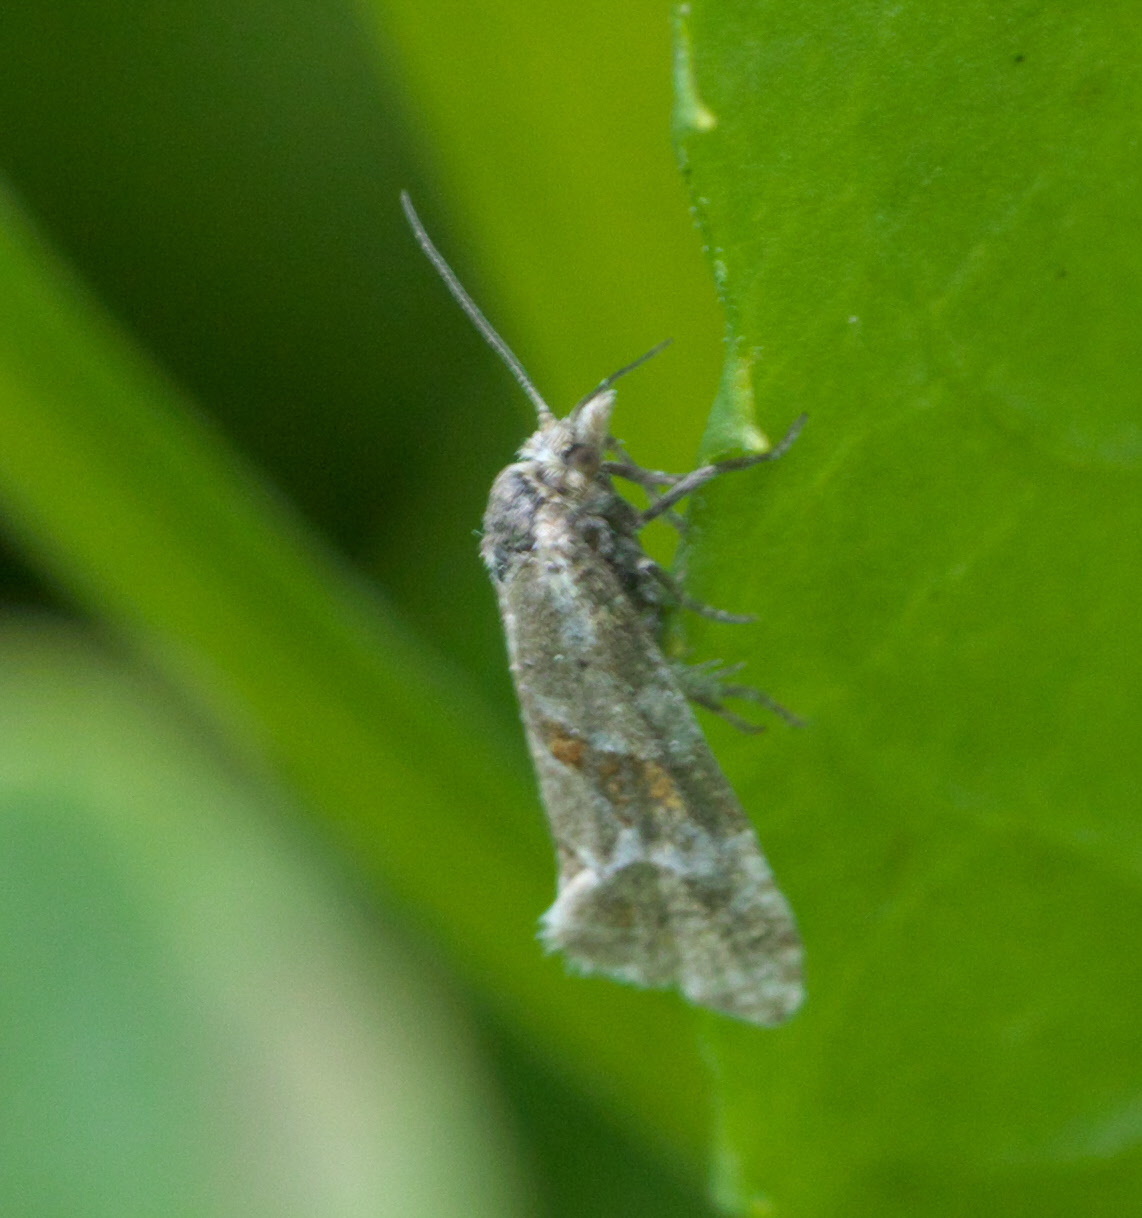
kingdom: Animalia
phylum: Arthropoda
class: Insecta
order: Lepidoptera
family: Tortricidae
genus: Aethes
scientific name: Aethes deutschiana
